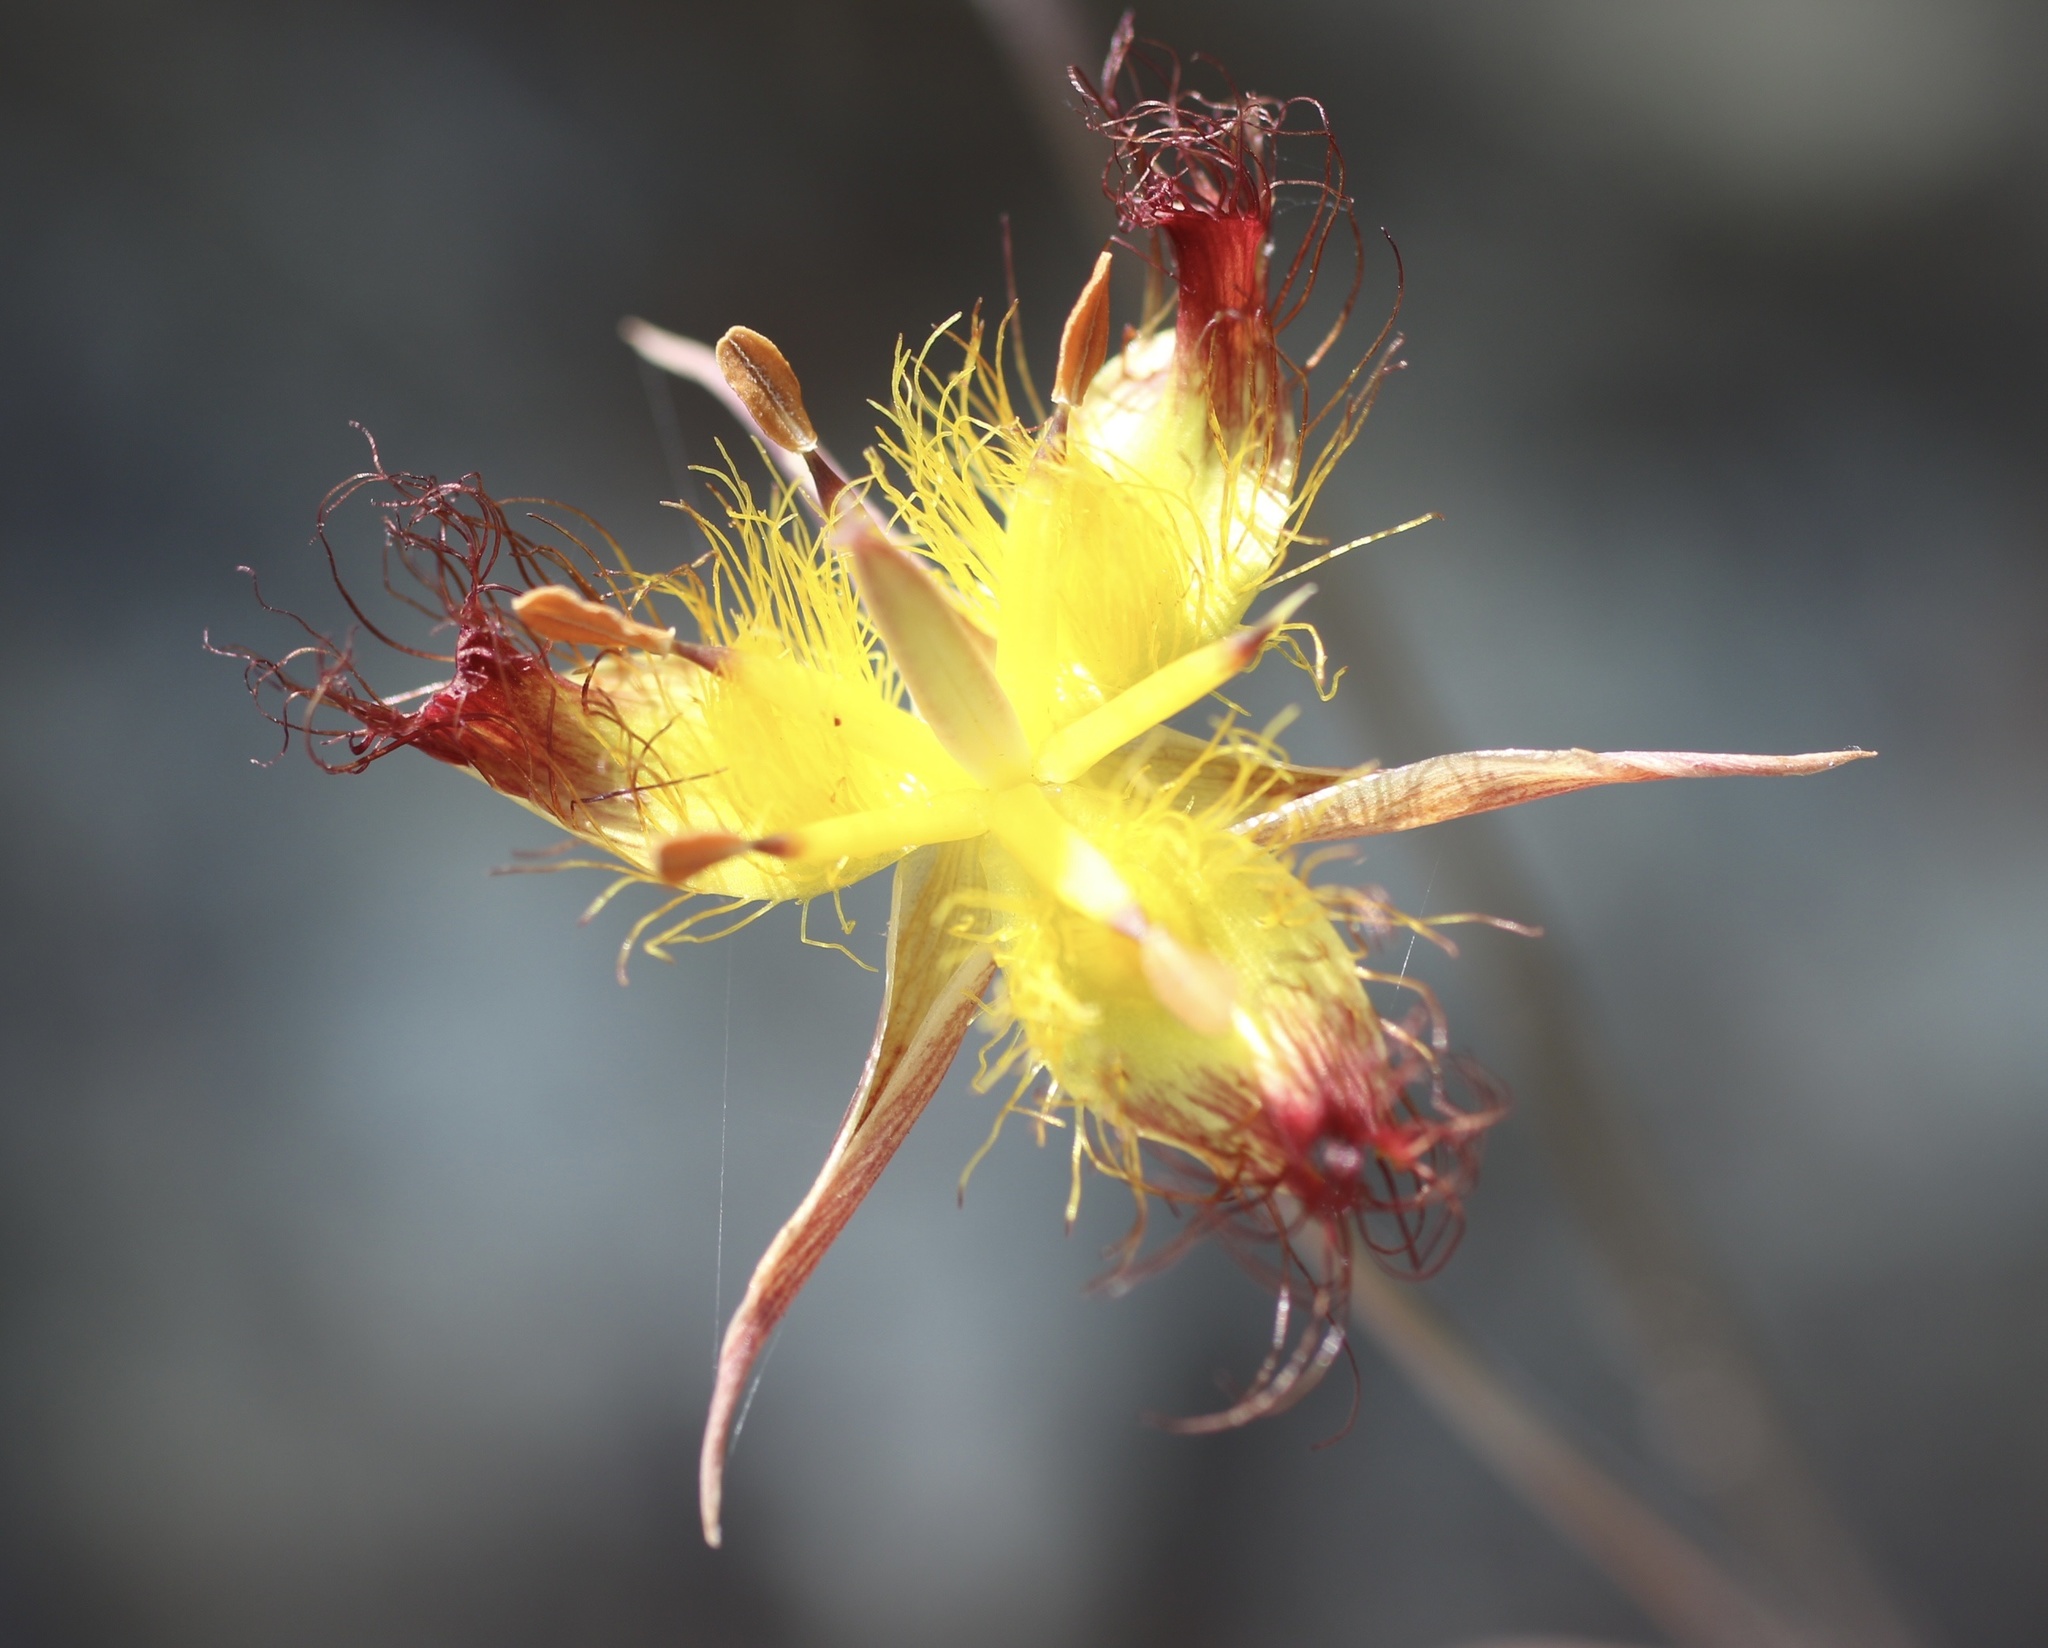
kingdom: Plantae
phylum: Tracheophyta
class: Liliopsida
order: Liliales
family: Liliaceae
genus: Calochortus
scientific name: Calochortus obispoensis
